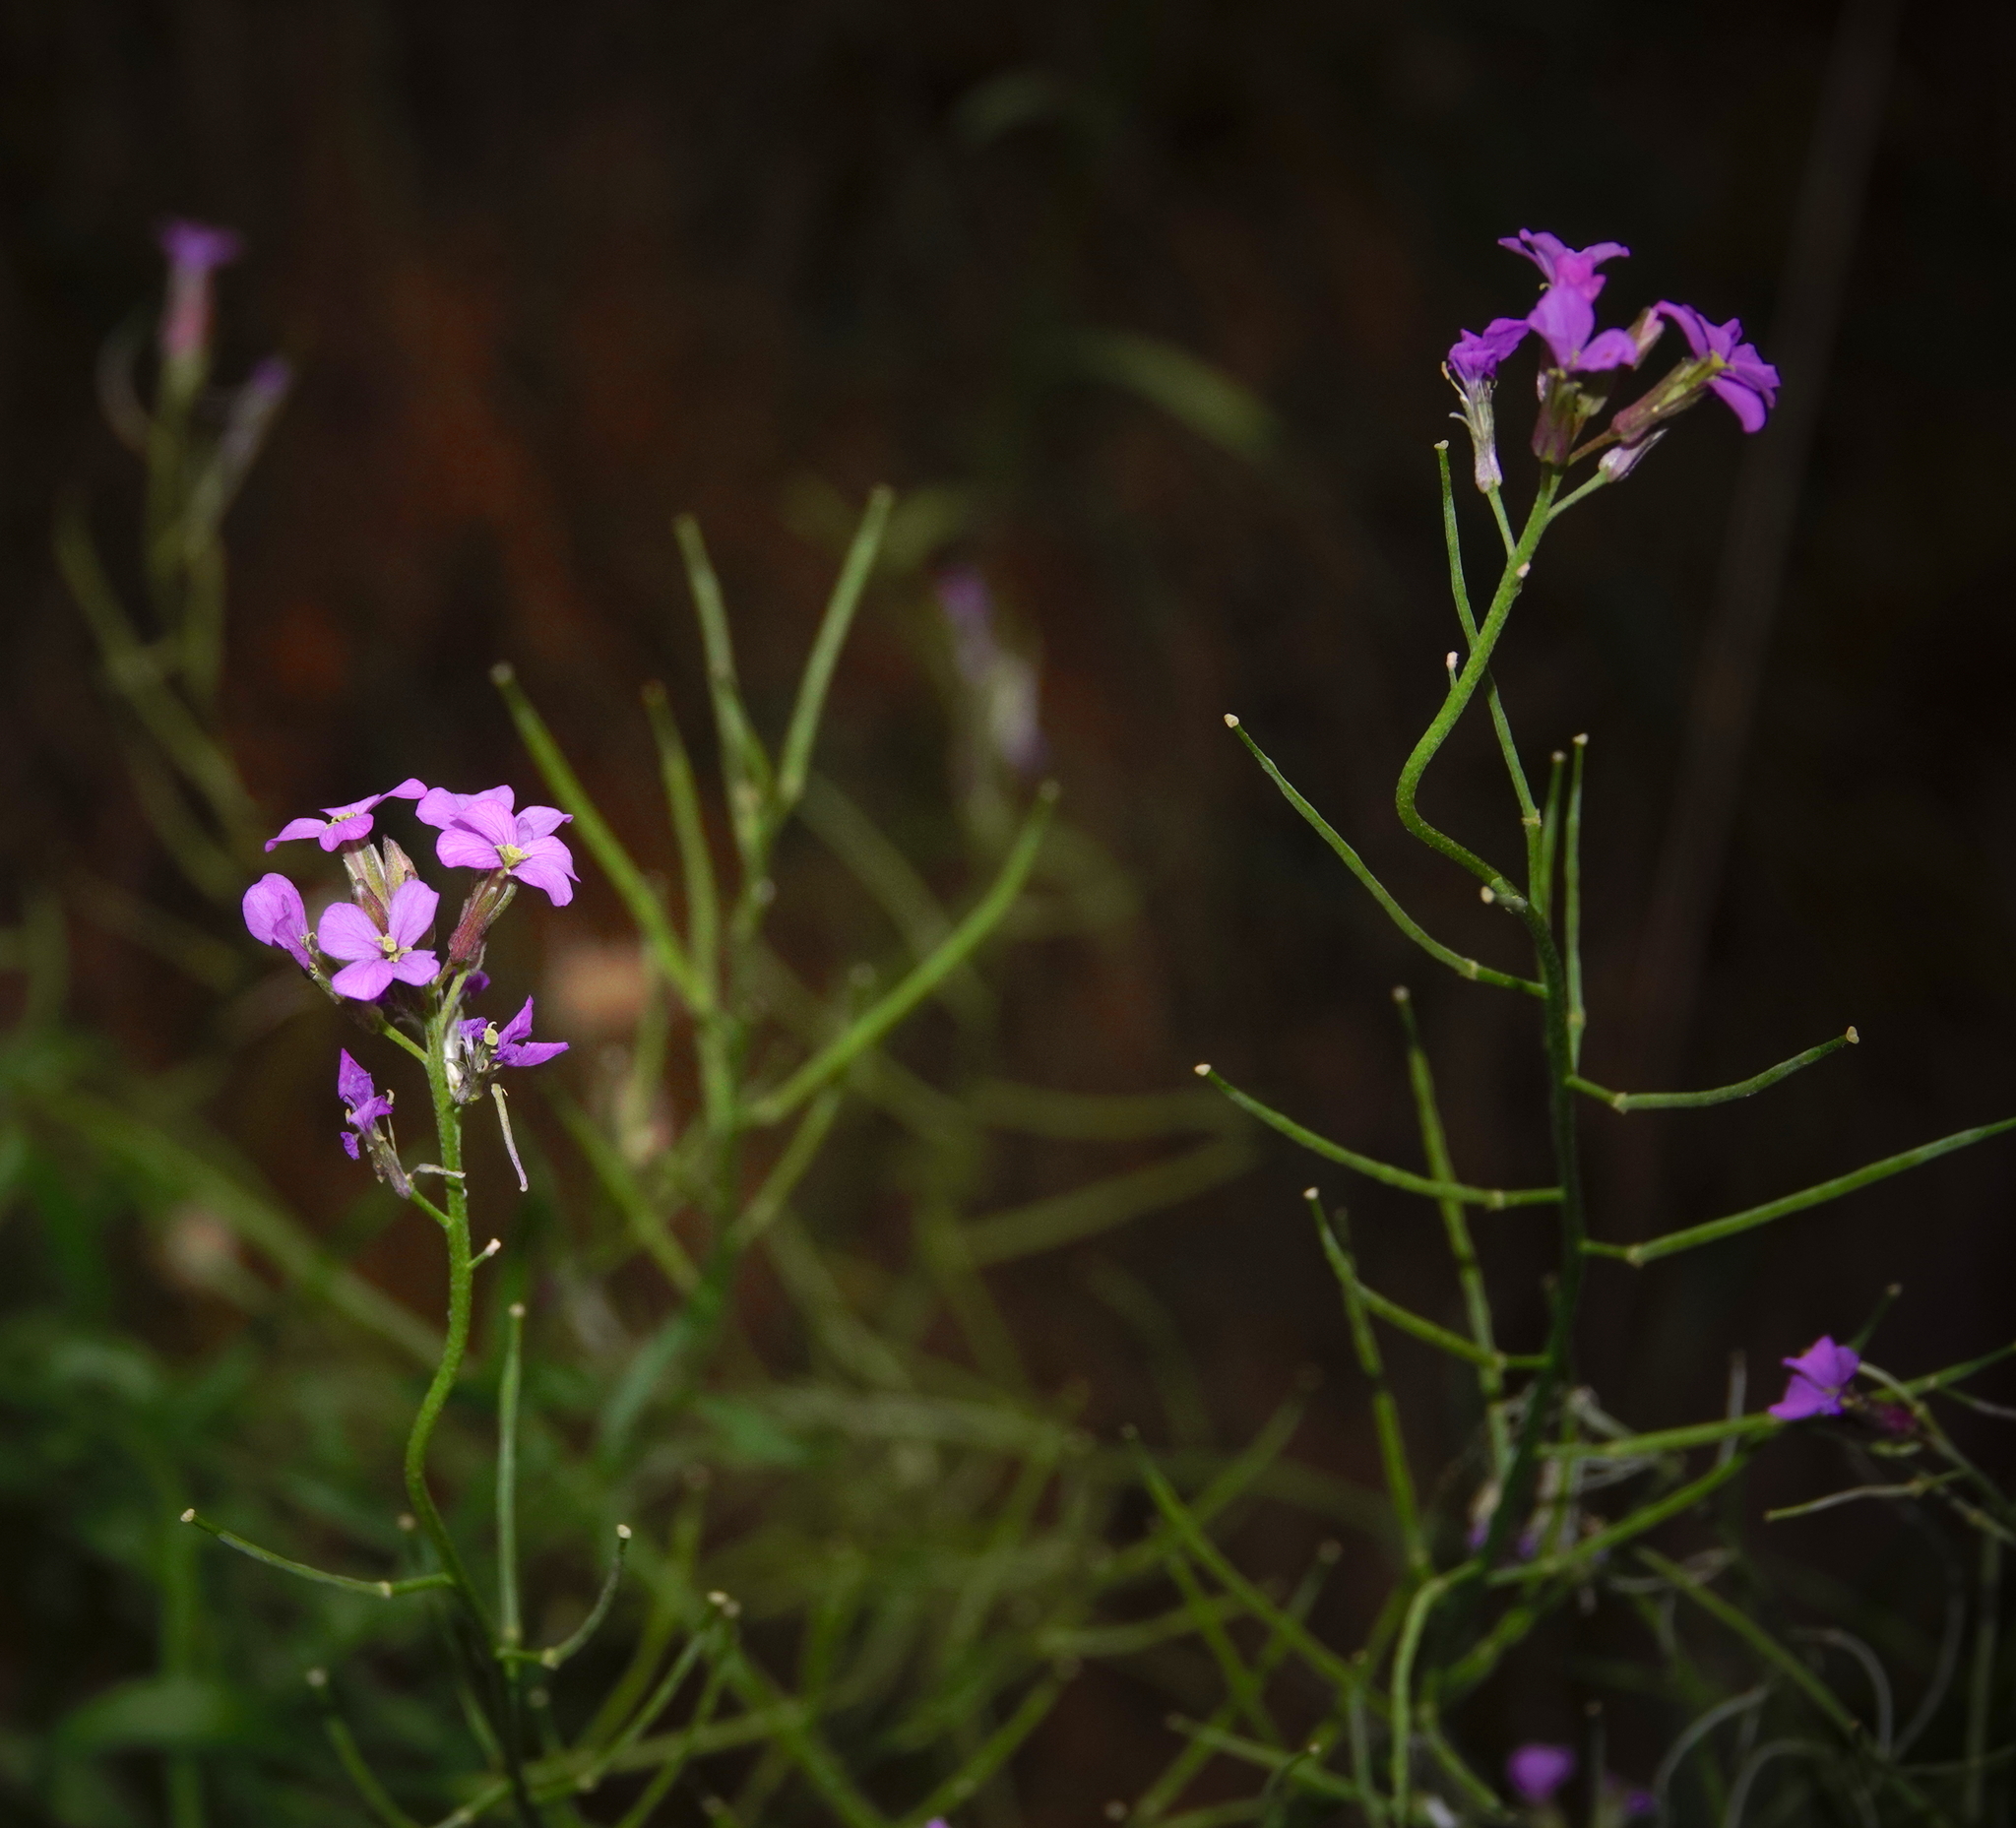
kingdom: Plantae
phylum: Tracheophyta
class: Magnoliopsida
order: Brassicales
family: Brassicaceae
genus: Erysimum
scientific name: Erysimum lagascae
